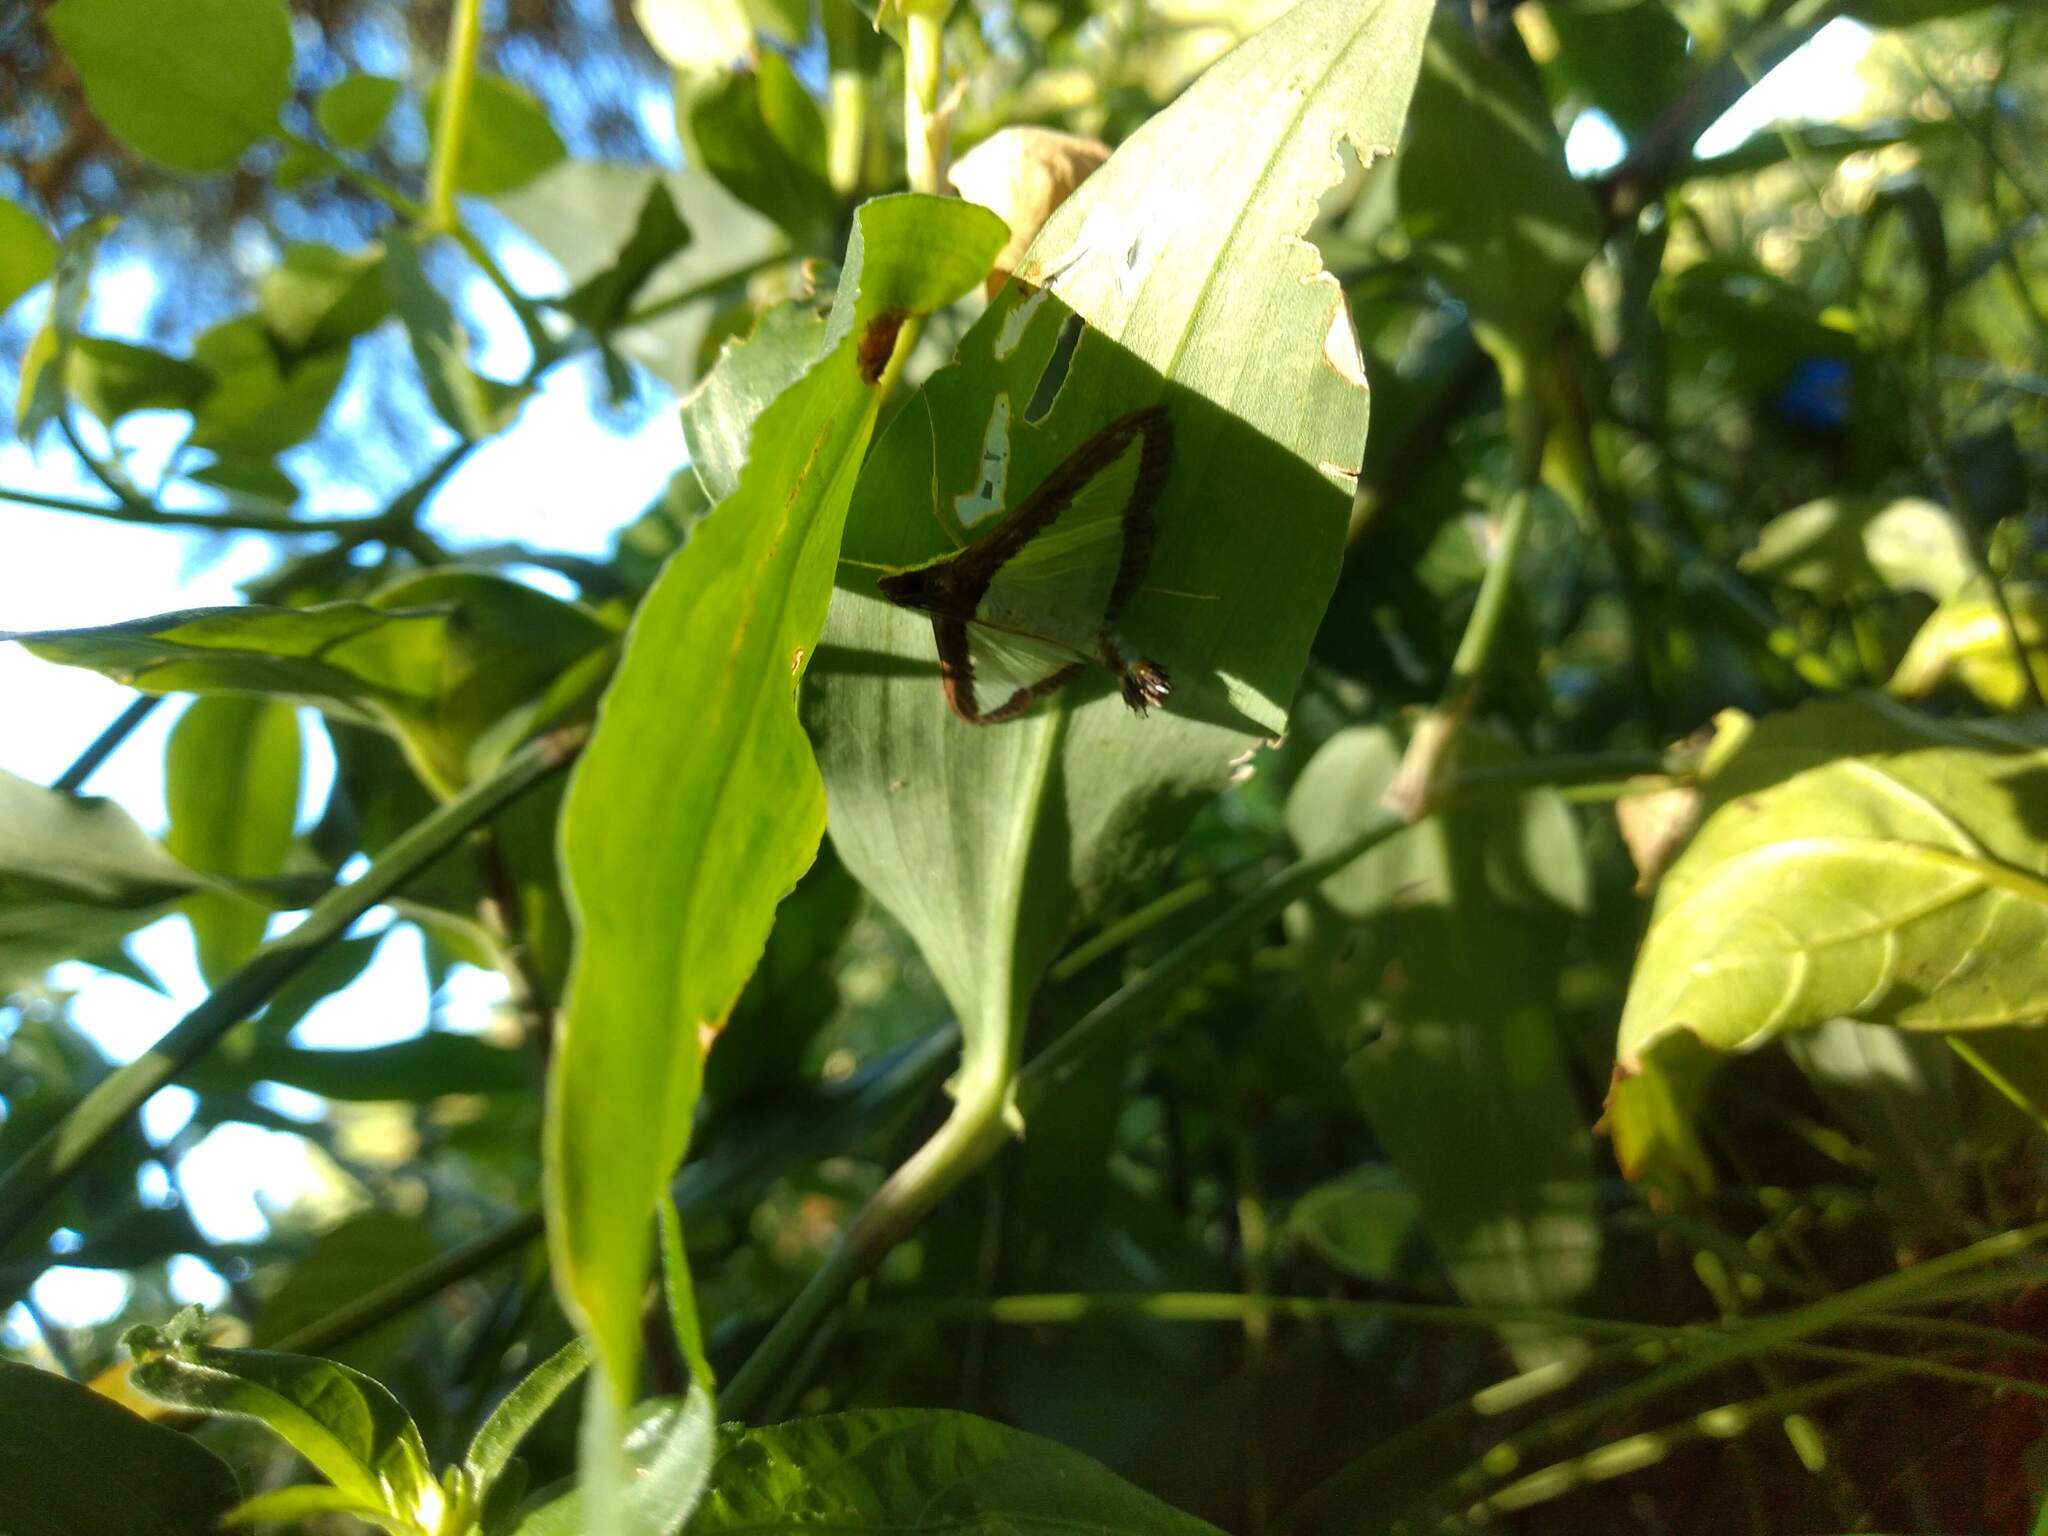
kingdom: Animalia
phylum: Arthropoda
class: Insecta
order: Lepidoptera
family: Crambidae
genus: Diaphania
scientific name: Diaphania hyalinata
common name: Melonworm
